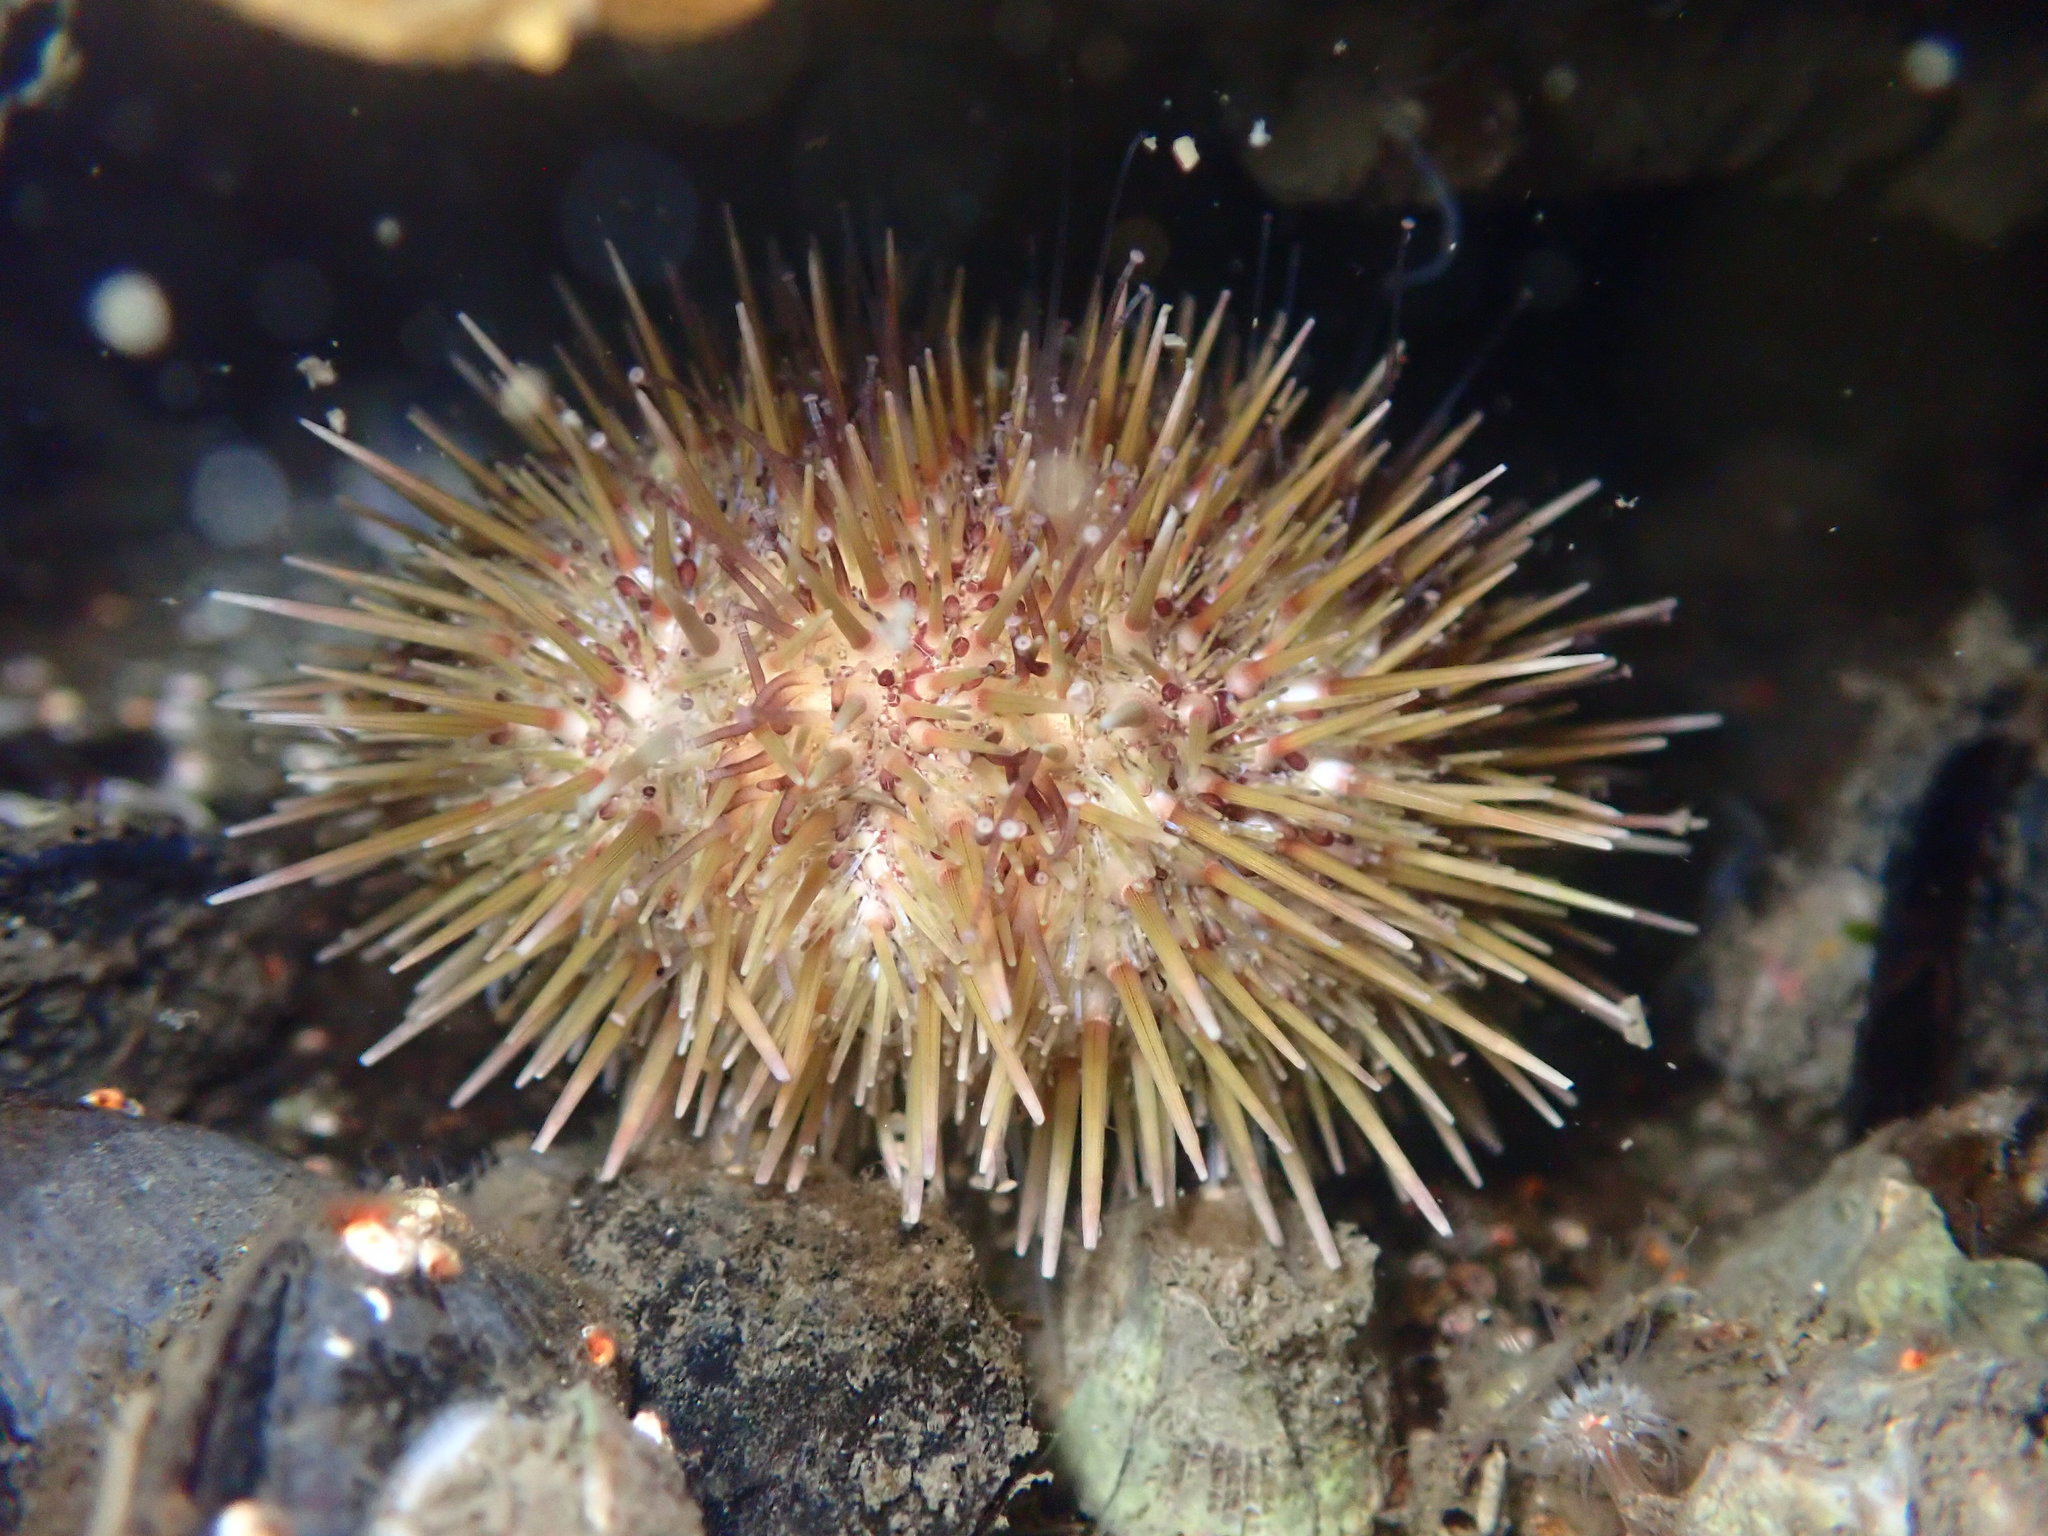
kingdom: Animalia
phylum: Echinodermata
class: Echinoidea
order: Camarodonta
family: Strongylocentrotidae
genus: Strongylocentrotus
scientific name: Strongylocentrotus droebachiensis
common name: Northern sea urchin
